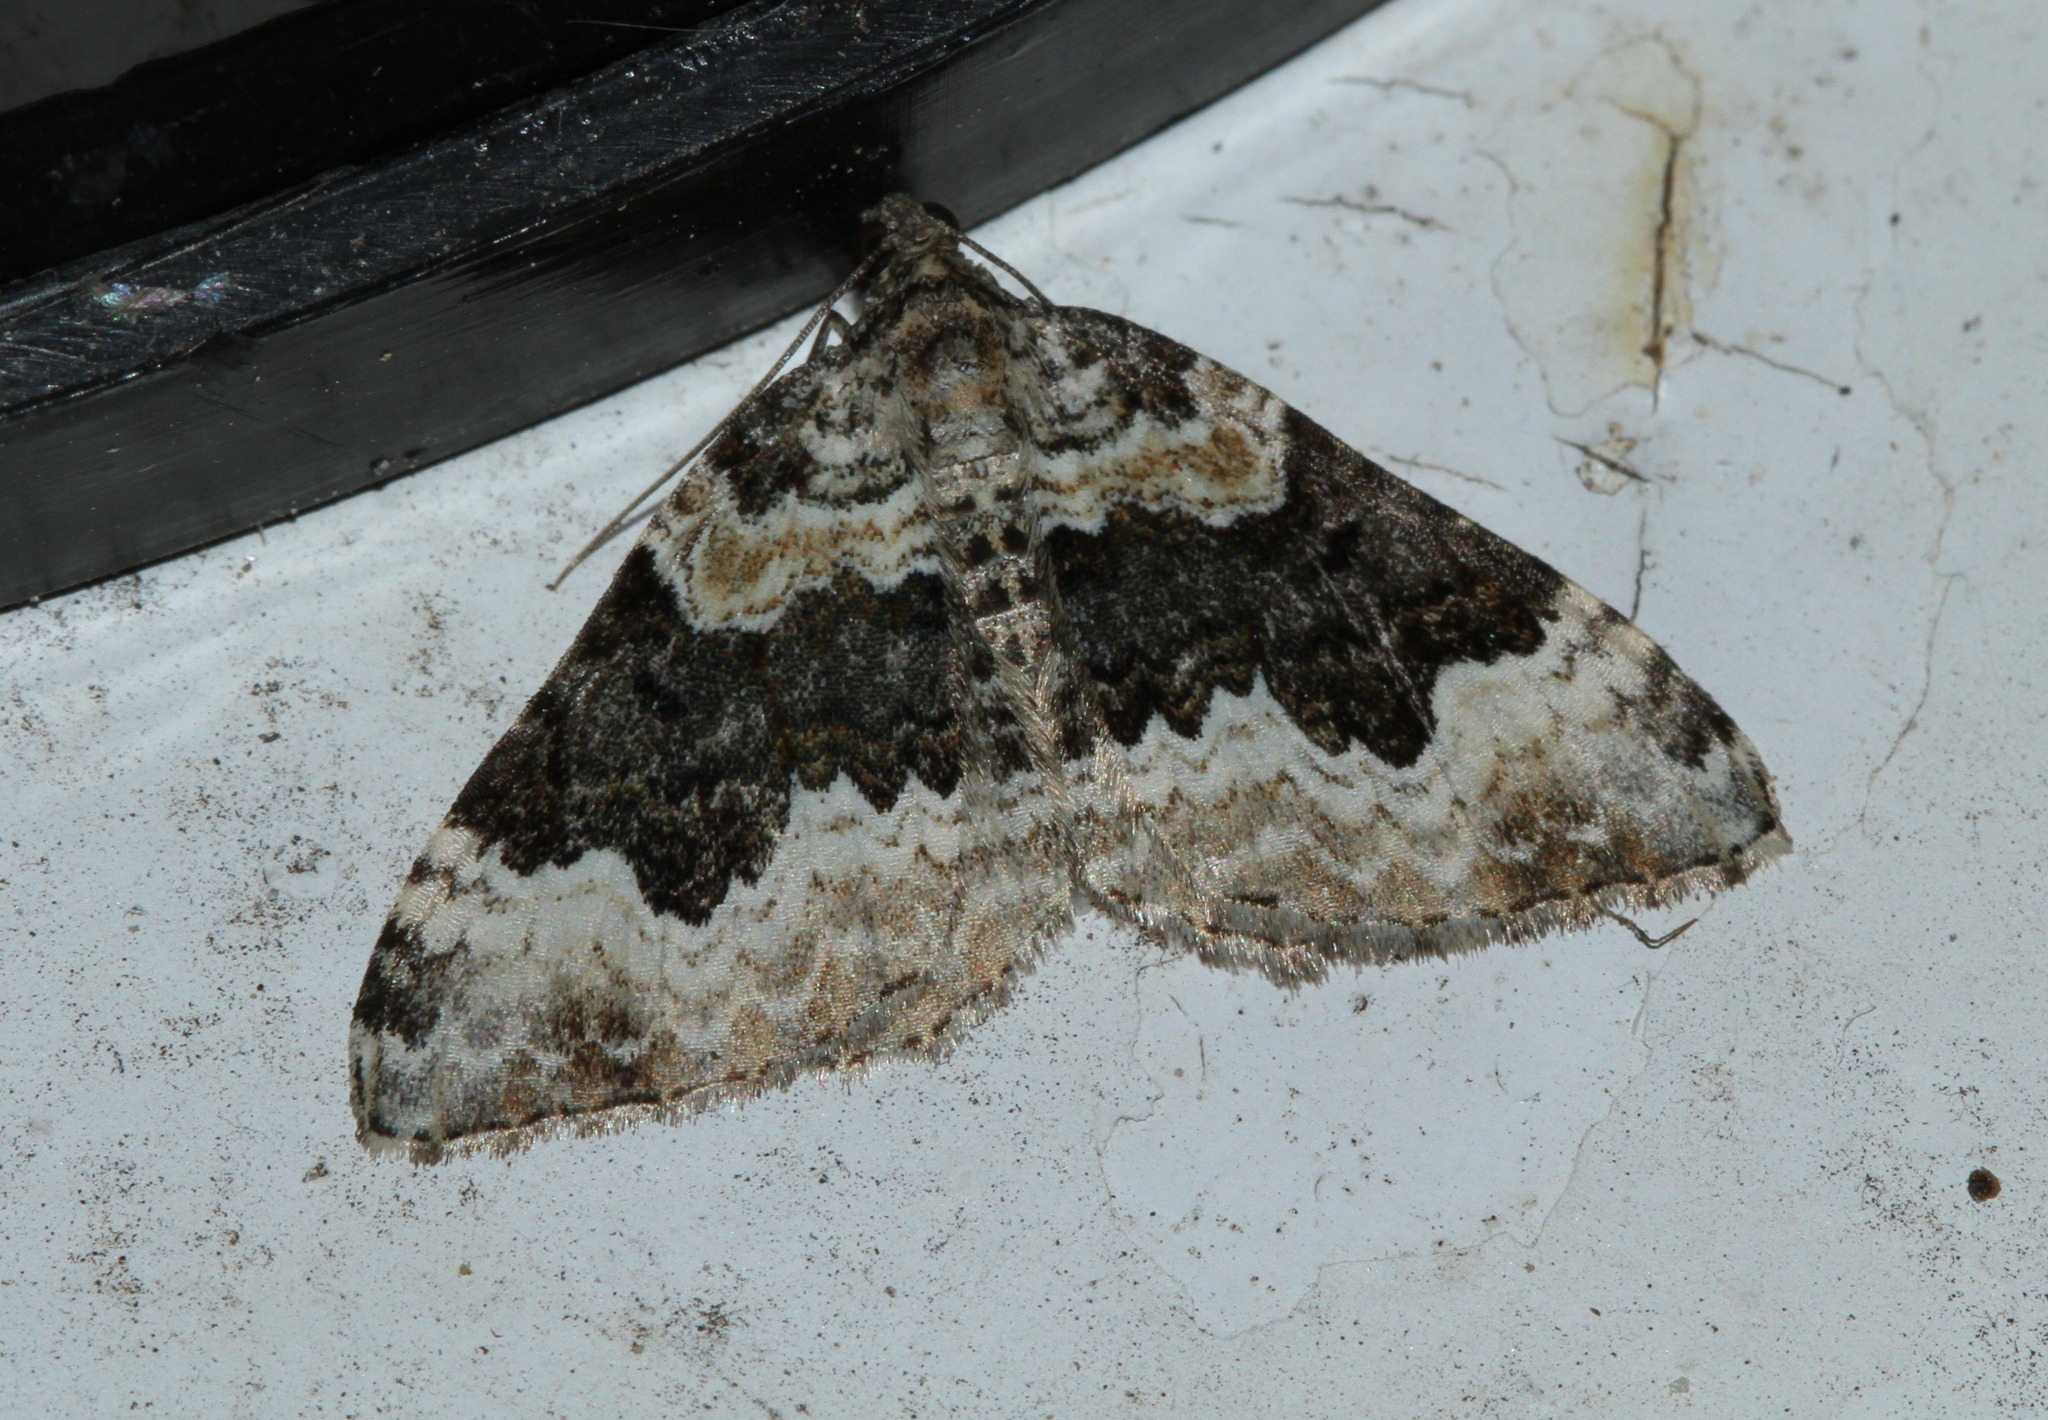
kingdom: Animalia
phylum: Arthropoda
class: Insecta
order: Lepidoptera
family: Geometridae
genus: Epirrhoe
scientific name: Epirrhoe galiata
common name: Galium carpet
